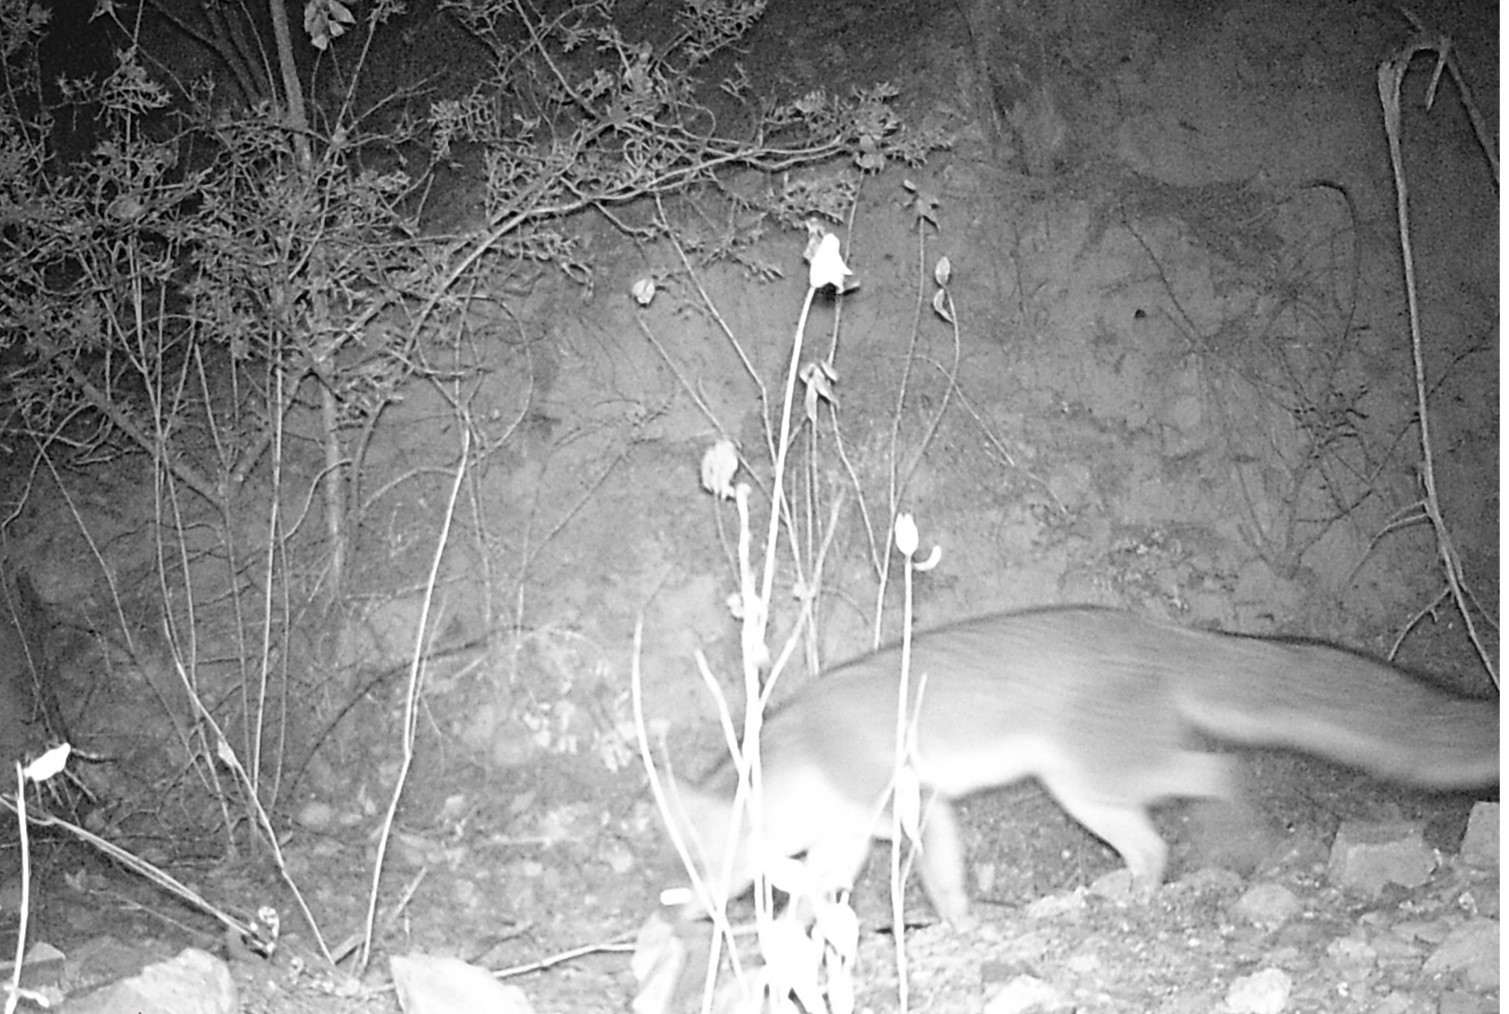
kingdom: Animalia
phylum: Chordata
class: Mammalia
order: Carnivora
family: Canidae
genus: Urocyon
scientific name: Urocyon cinereoargenteus
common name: Gray fox
